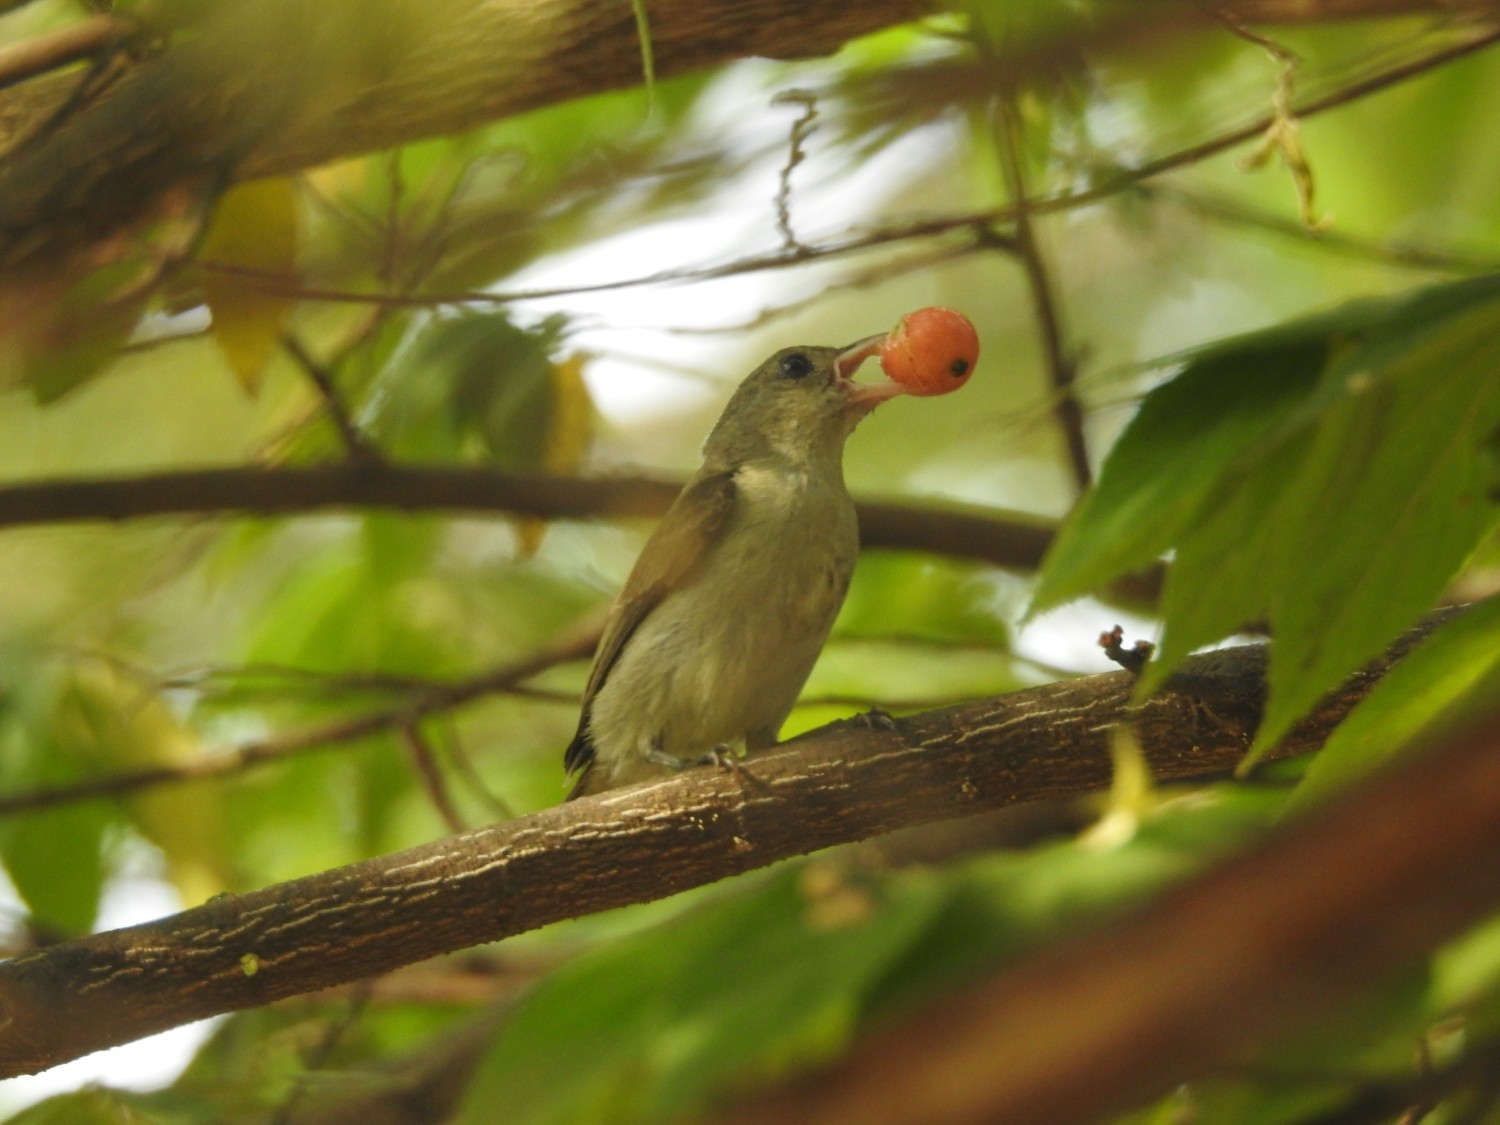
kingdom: Animalia
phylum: Chordata
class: Aves
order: Passeriformes
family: Dicaeidae
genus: Dicaeum
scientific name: Dicaeum erythrorhynchos
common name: Pale-billed flowerpecker
